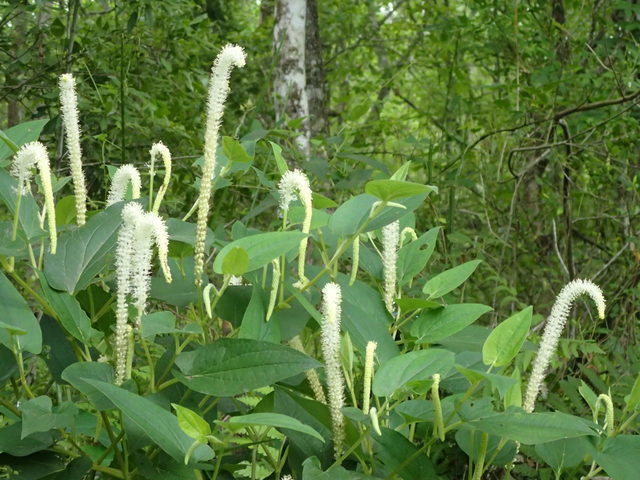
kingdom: Plantae
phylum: Tracheophyta
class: Magnoliopsida
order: Piperales
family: Saururaceae
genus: Saururus
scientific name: Saururus cernuus
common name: Lizard's-tail
